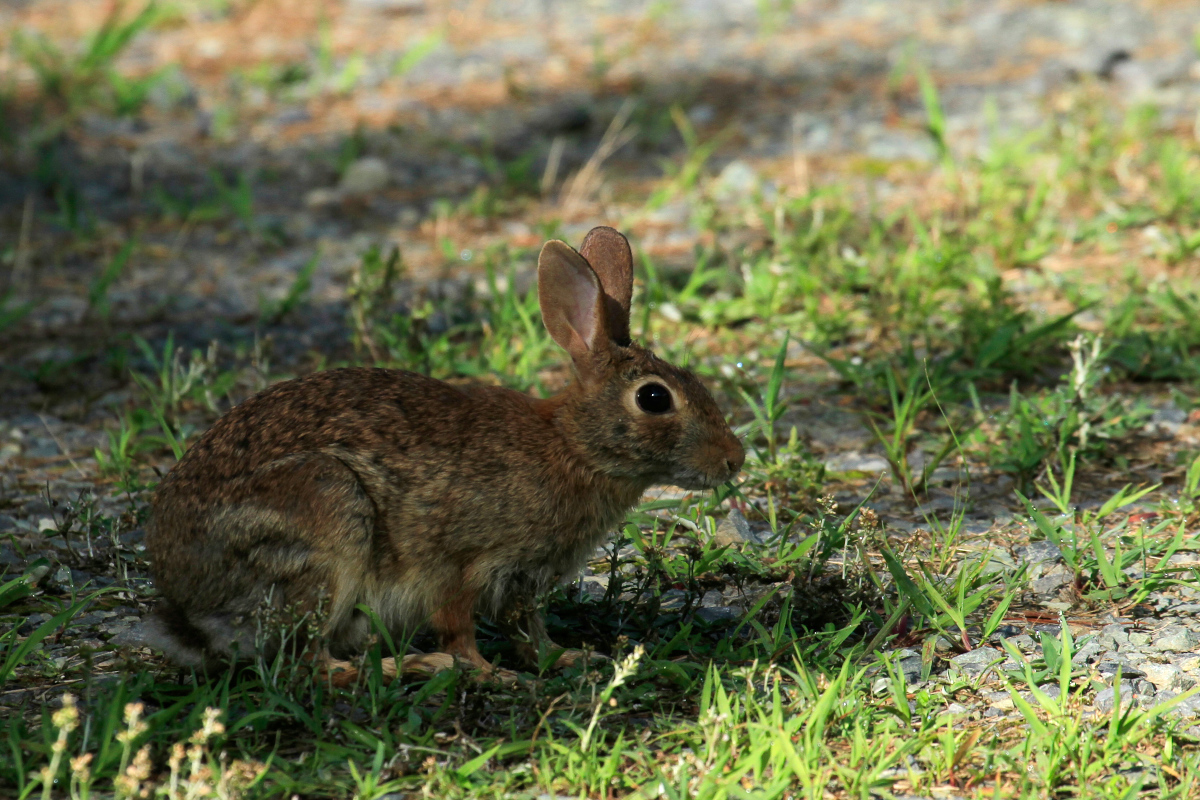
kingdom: Animalia
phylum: Chordata
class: Mammalia
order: Lagomorpha
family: Leporidae
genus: Sylvilagus
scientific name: Sylvilagus floridanus
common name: Eastern cottontail
